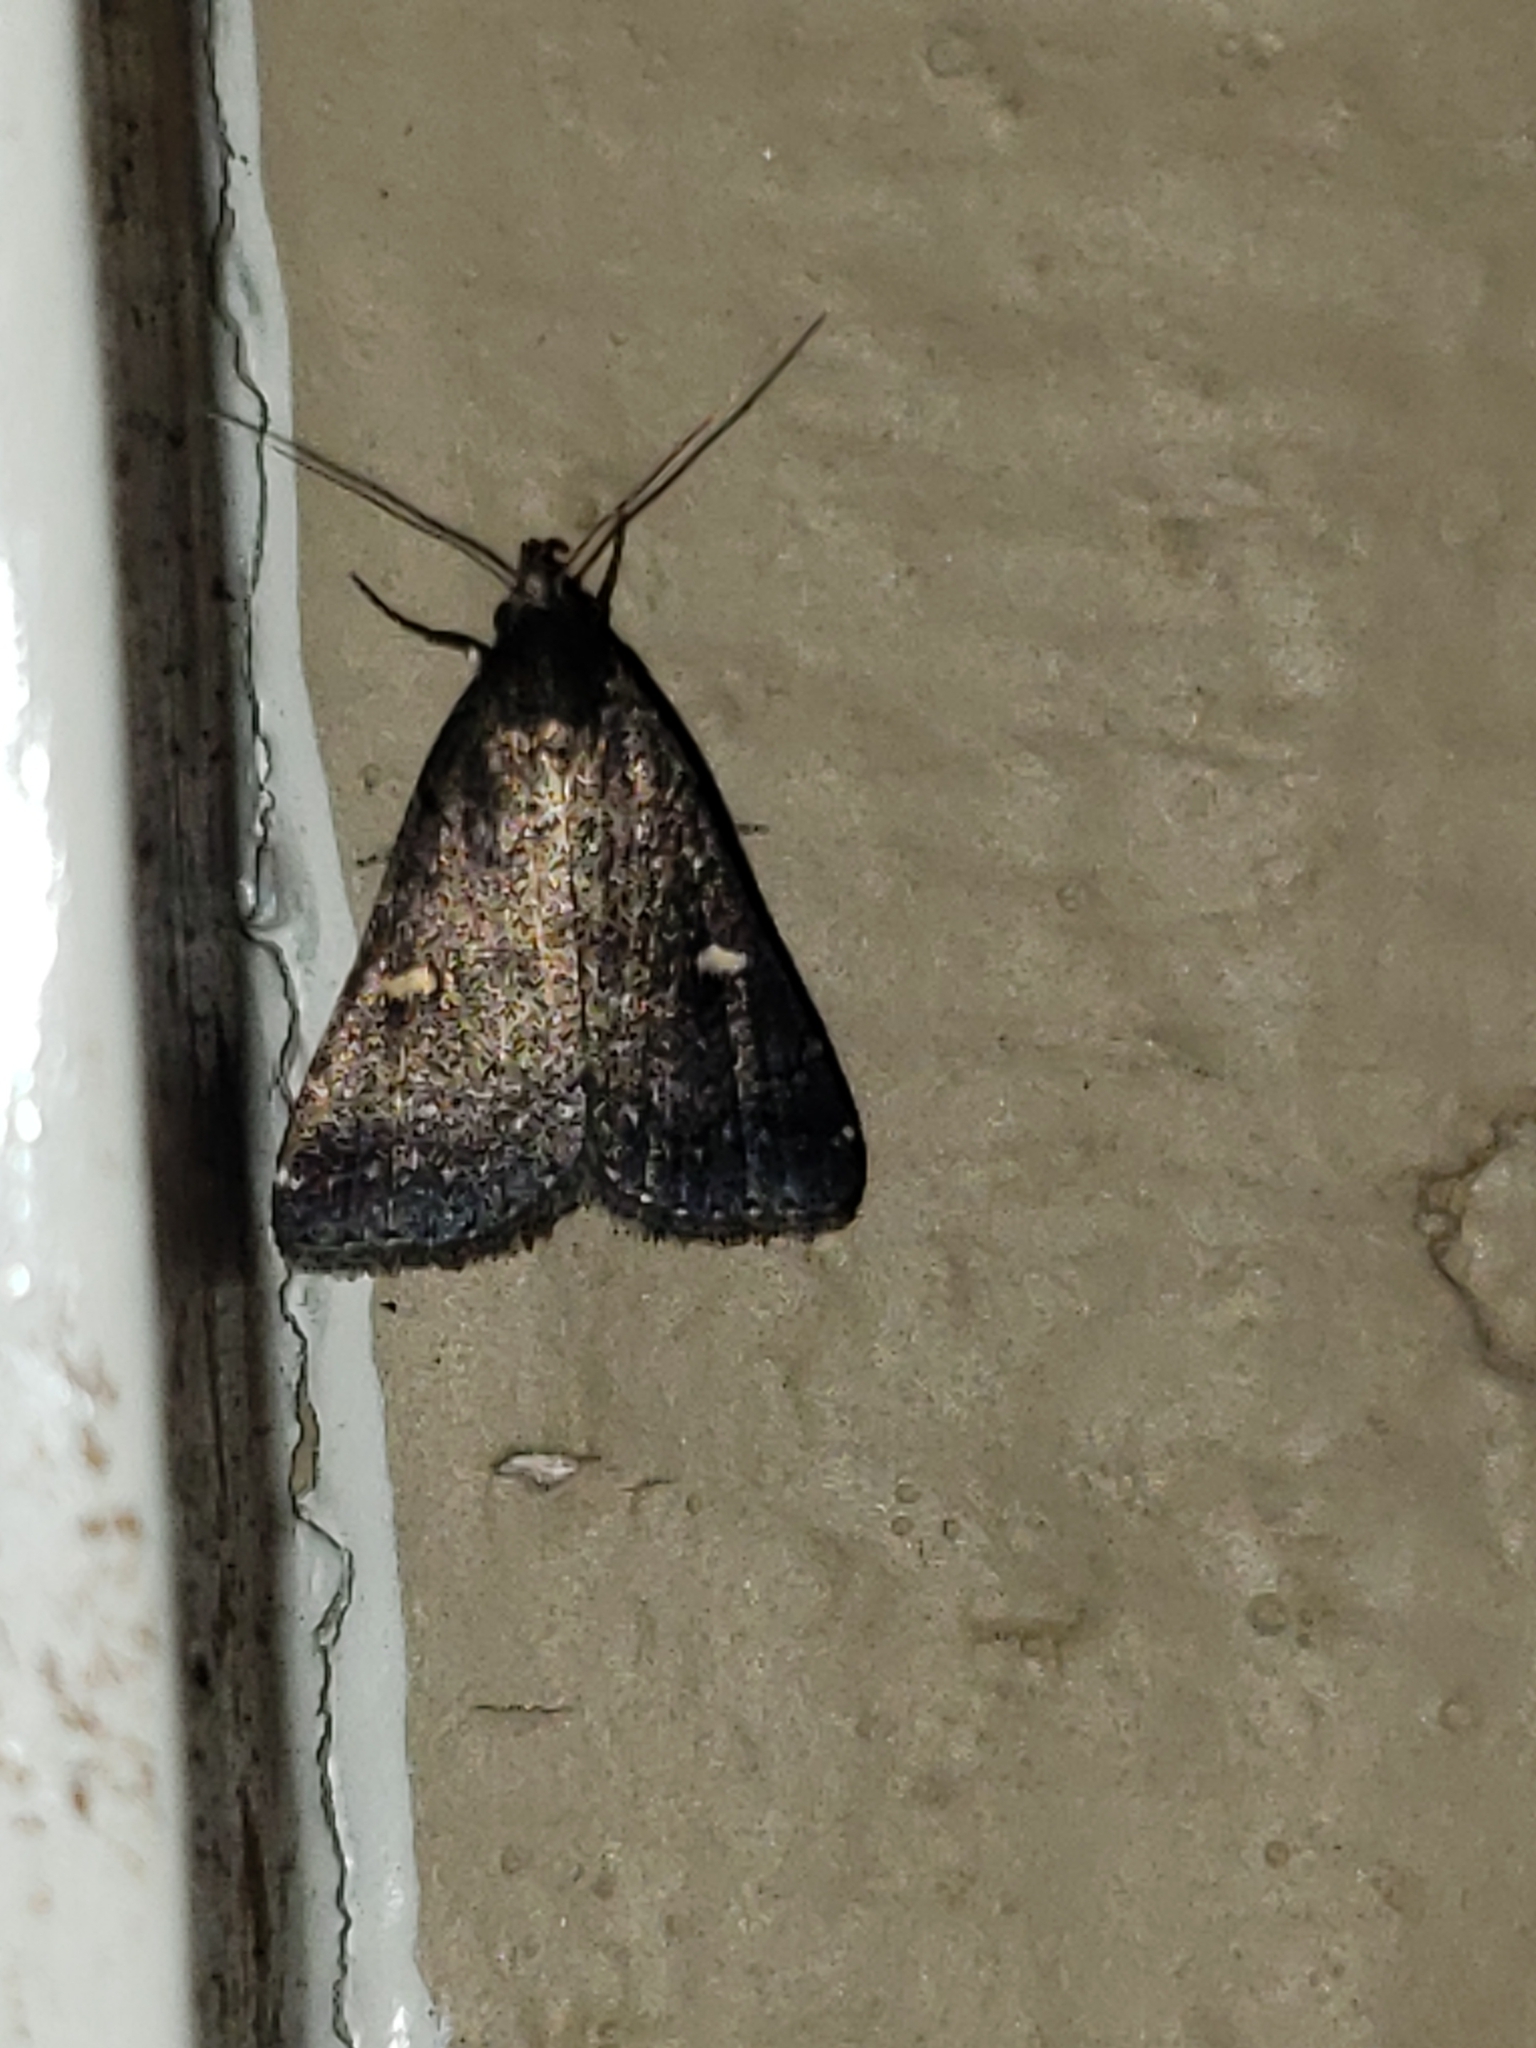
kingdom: Animalia
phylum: Arthropoda
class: Insecta
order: Lepidoptera
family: Erebidae
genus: Tetanolita
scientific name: Tetanolita mynesalis
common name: Smoky tetanolita moth
